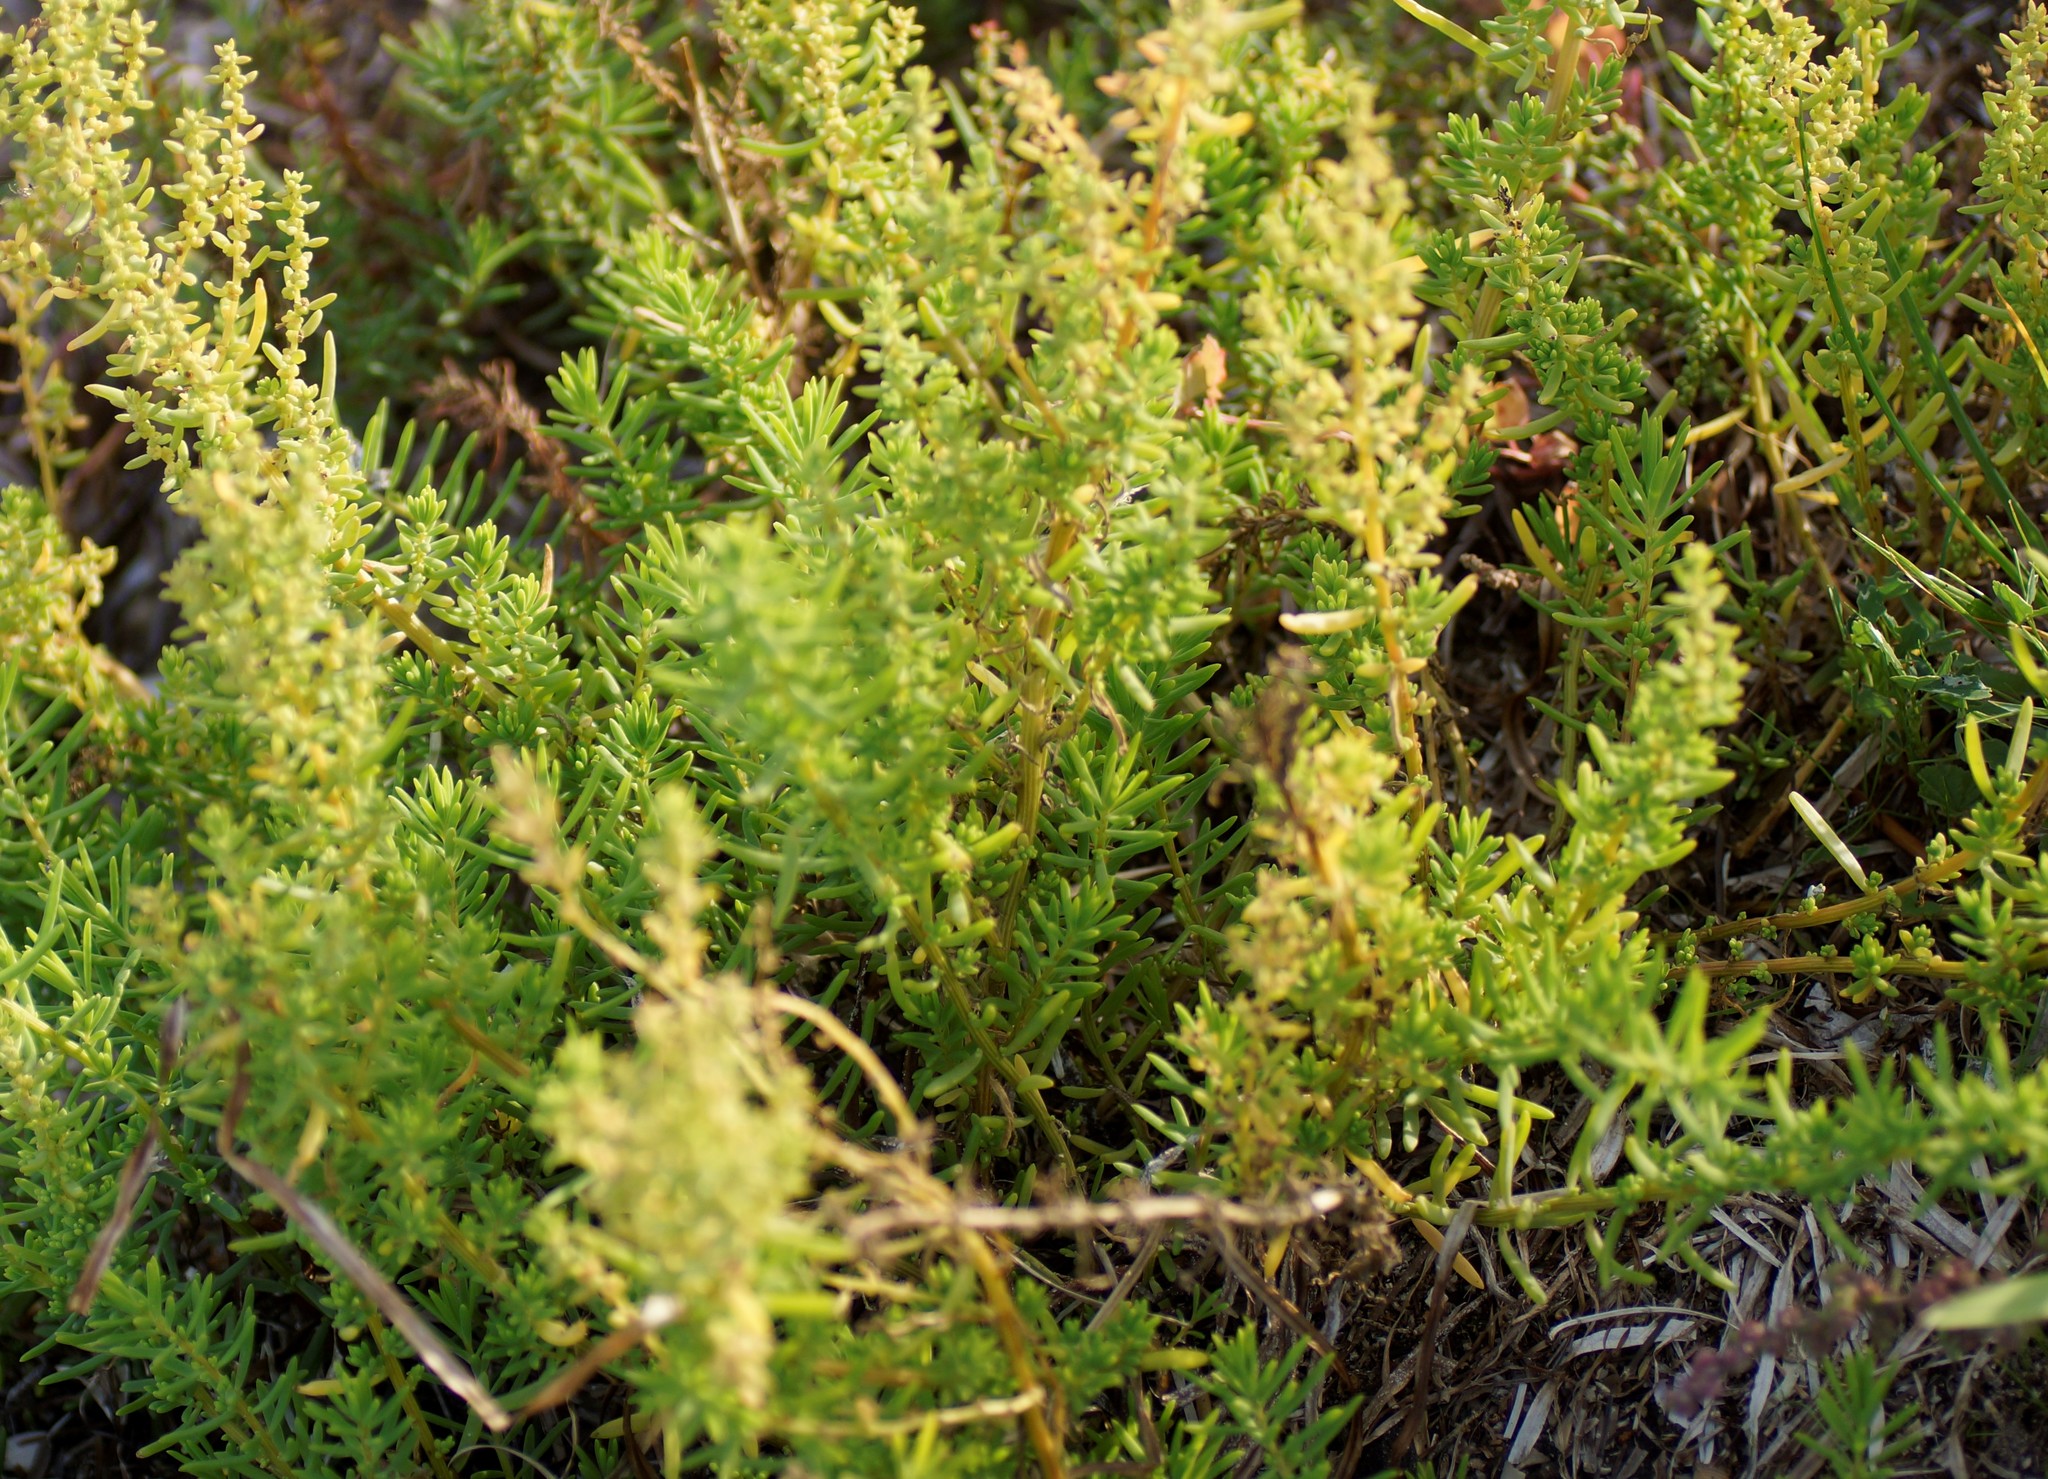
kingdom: Plantae
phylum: Tracheophyta
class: Magnoliopsida
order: Caryophyllales
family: Amaranthaceae
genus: Suaeda
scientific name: Suaeda australis
